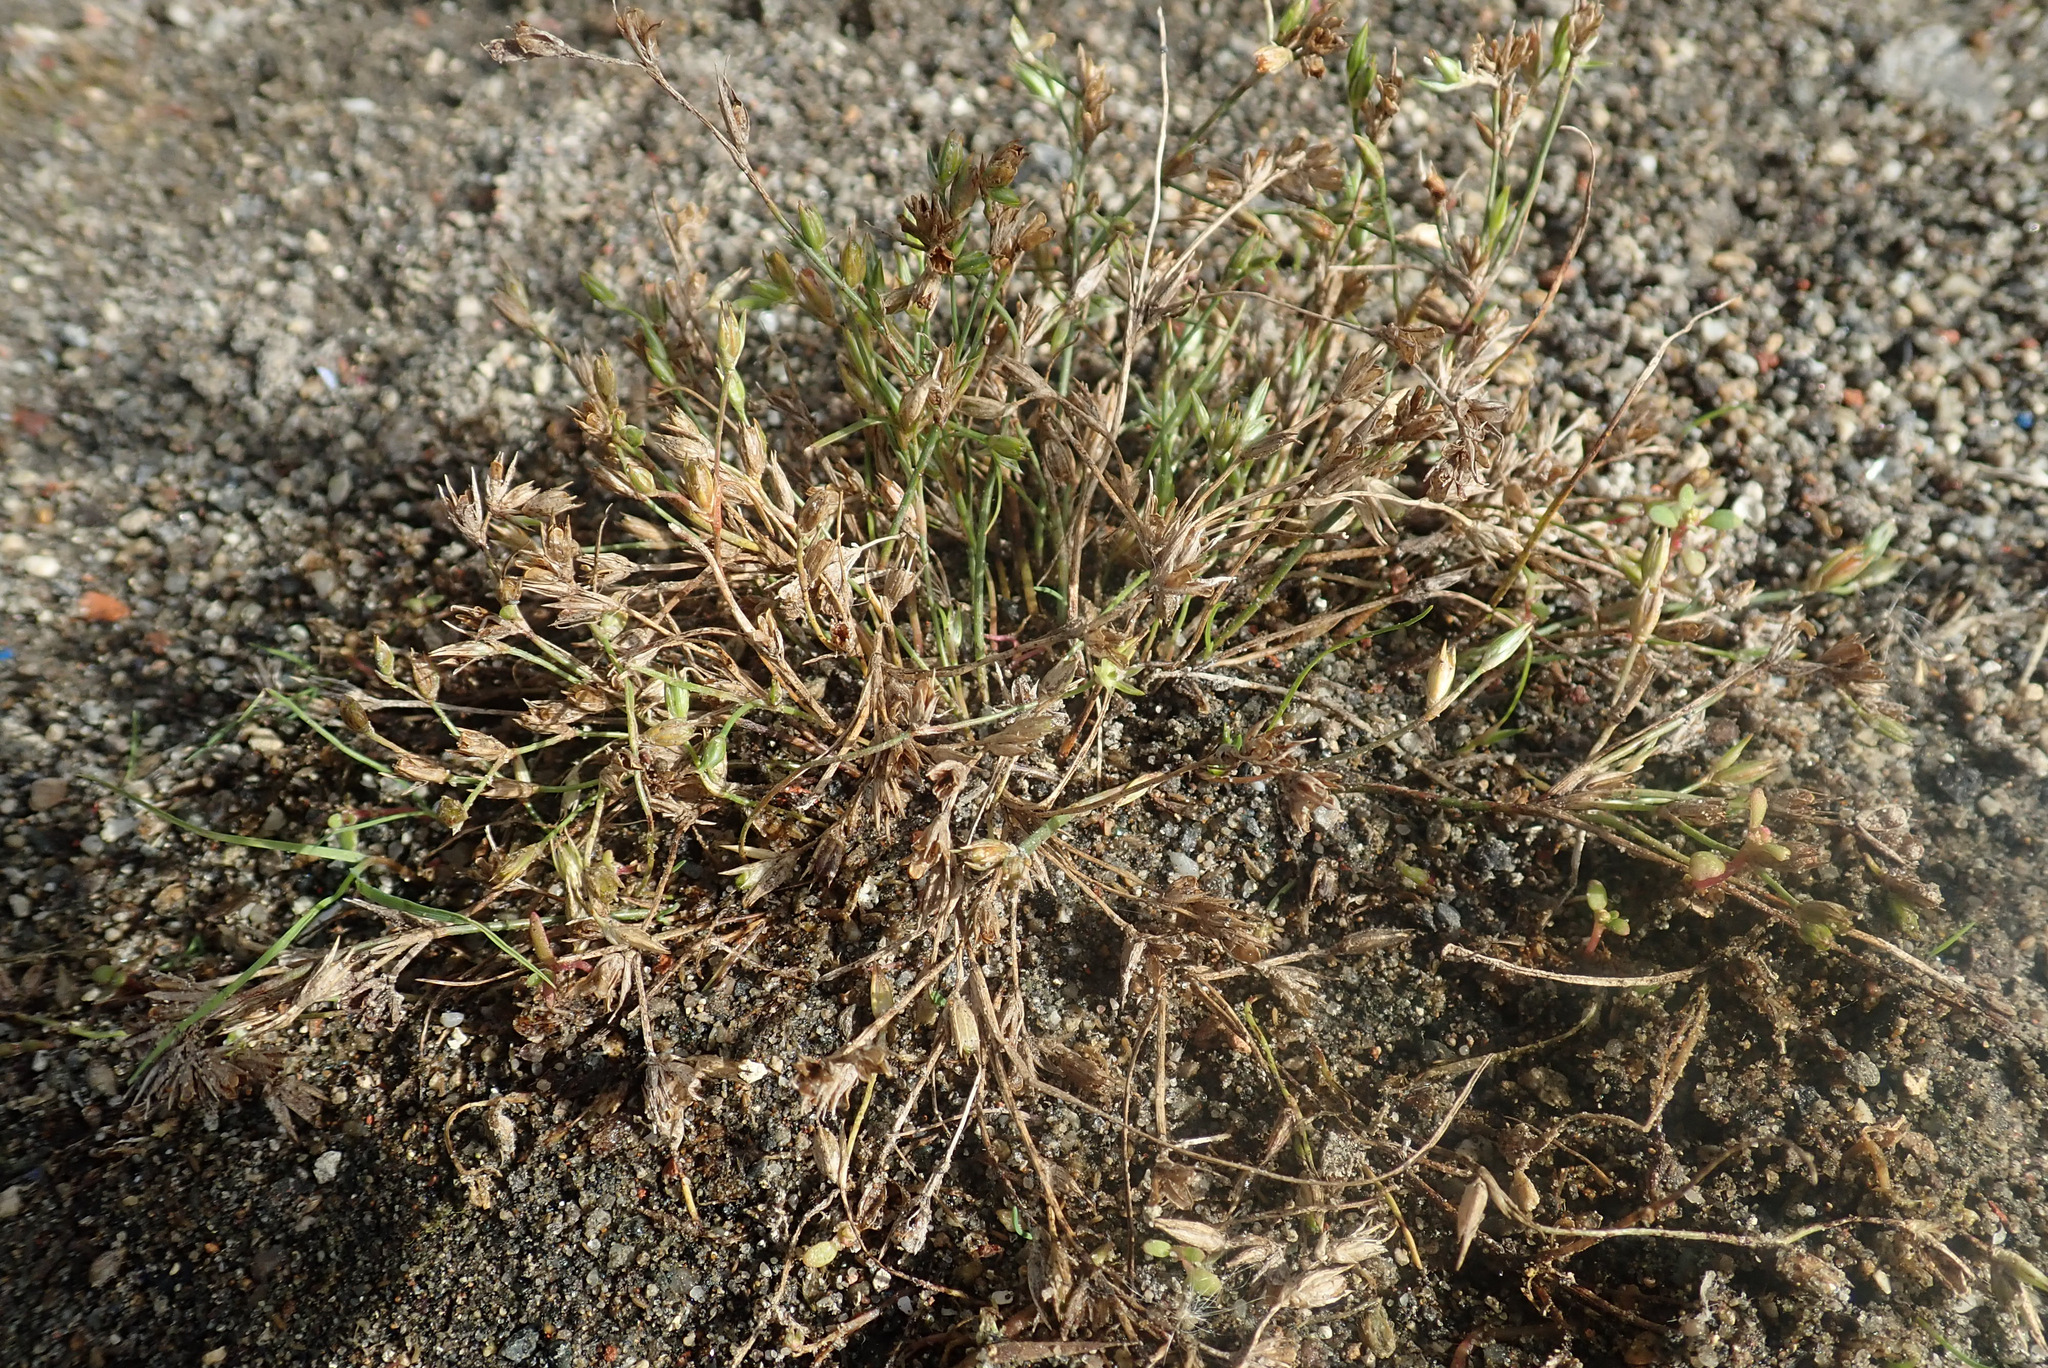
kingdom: Plantae
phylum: Tracheophyta
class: Liliopsida
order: Poales
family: Juncaceae
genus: Juncus
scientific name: Juncus hybridus
